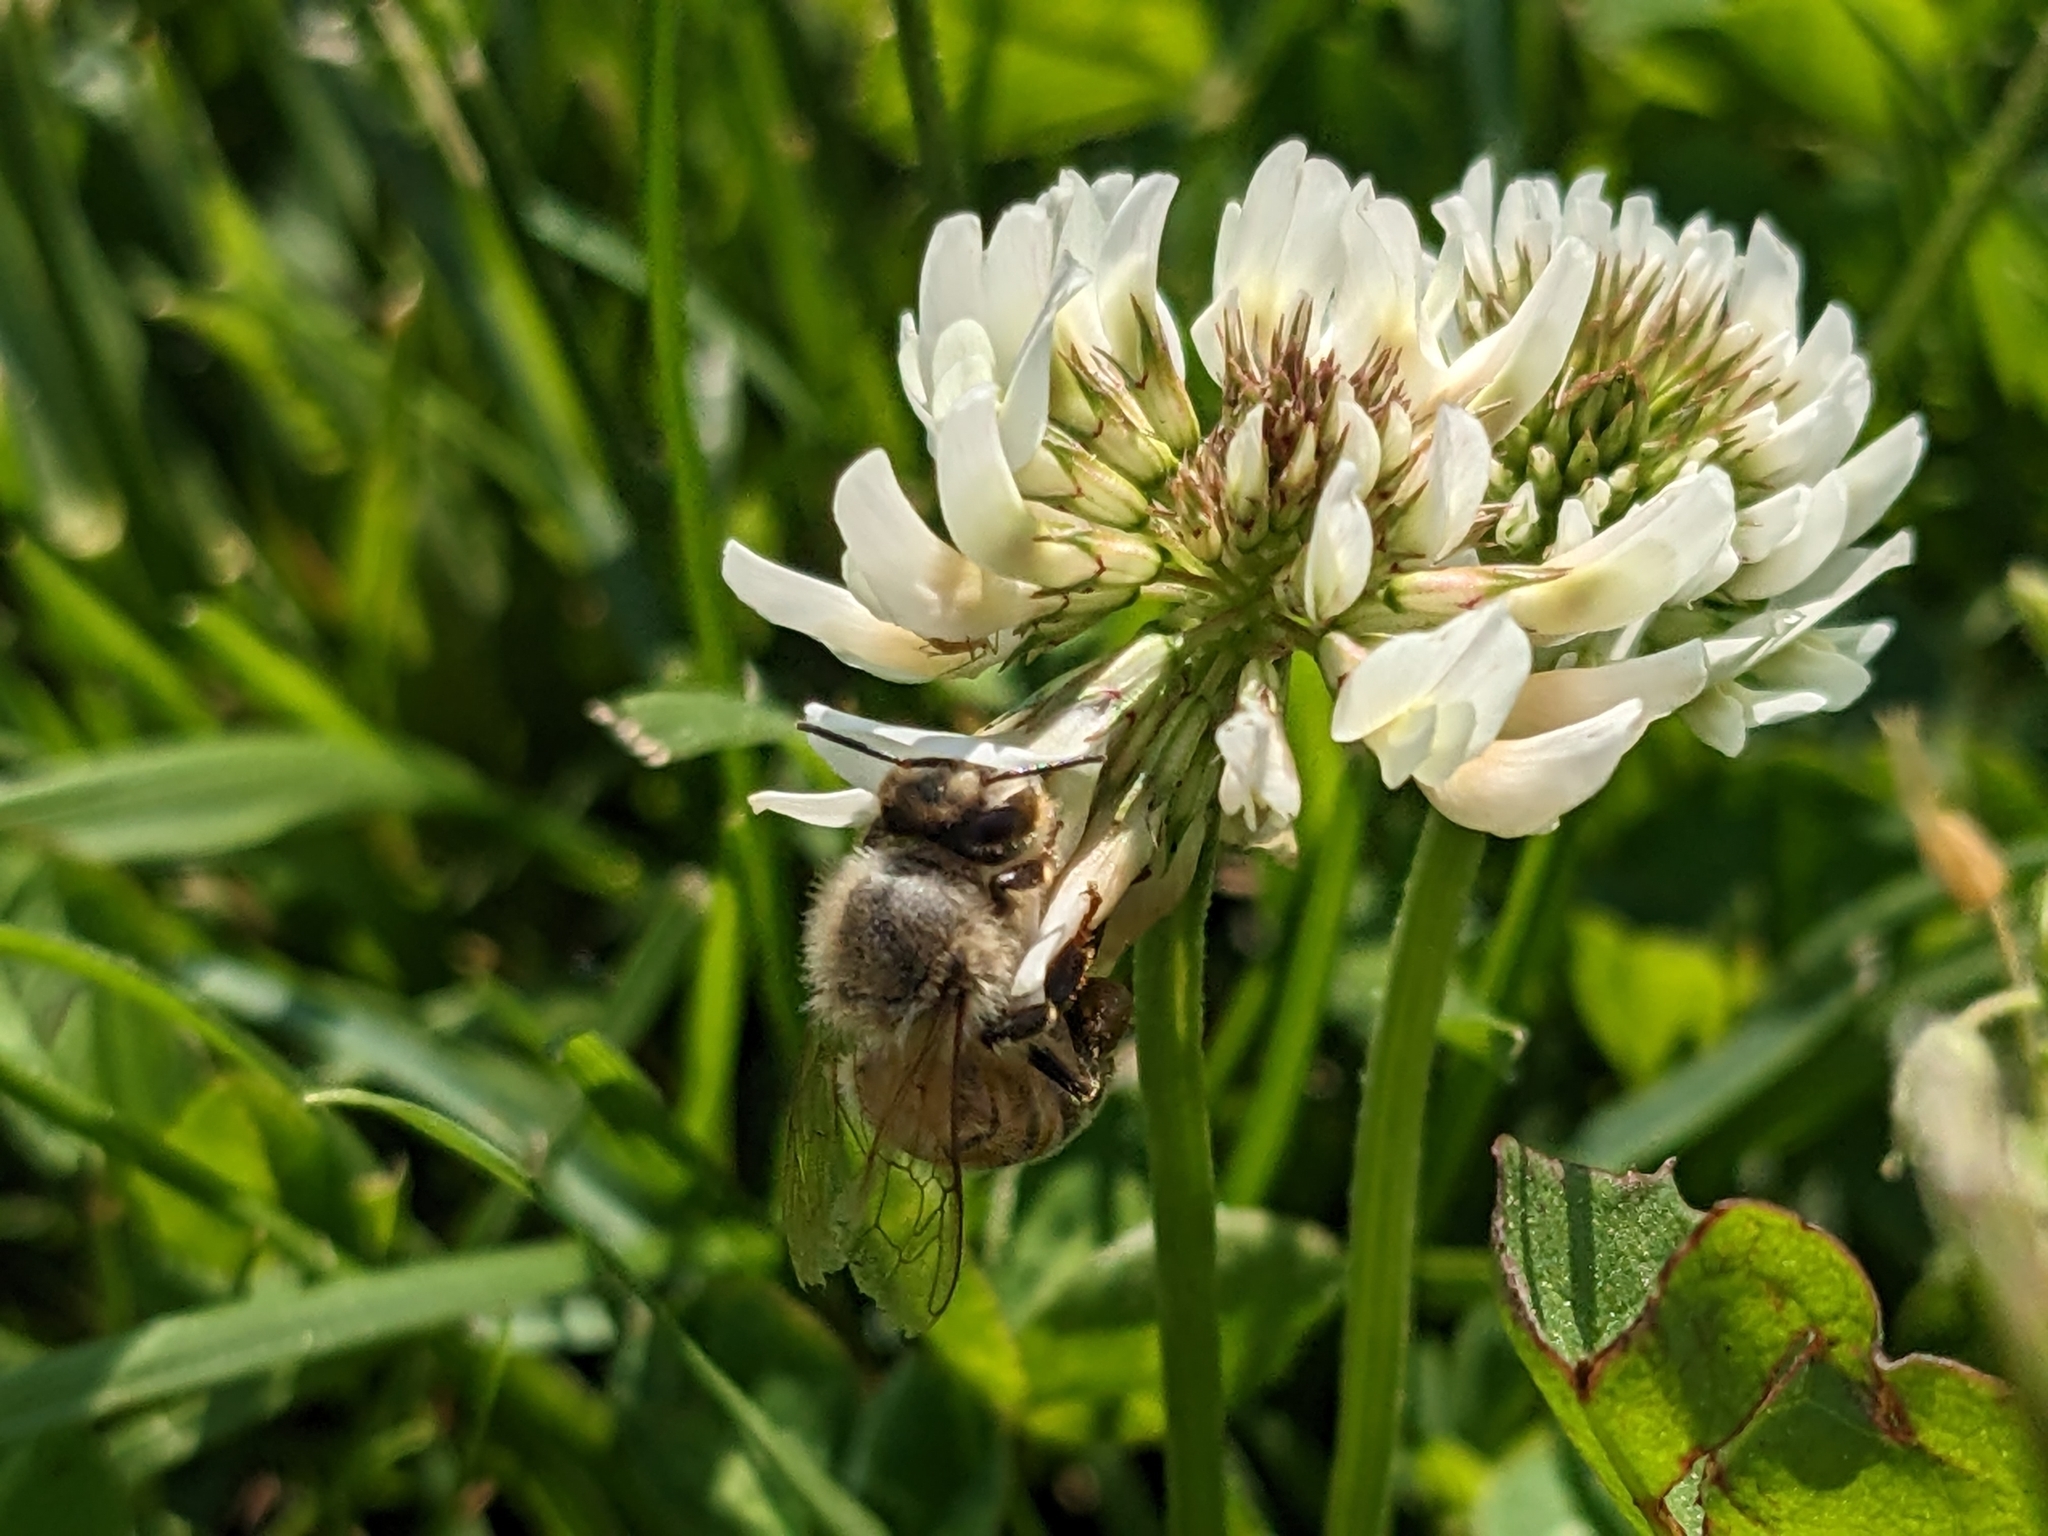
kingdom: Animalia
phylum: Arthropoda
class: Insecta
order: Hymenoptera
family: Apidae
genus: Apis
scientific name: Apis mellifera
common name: Honey bee
